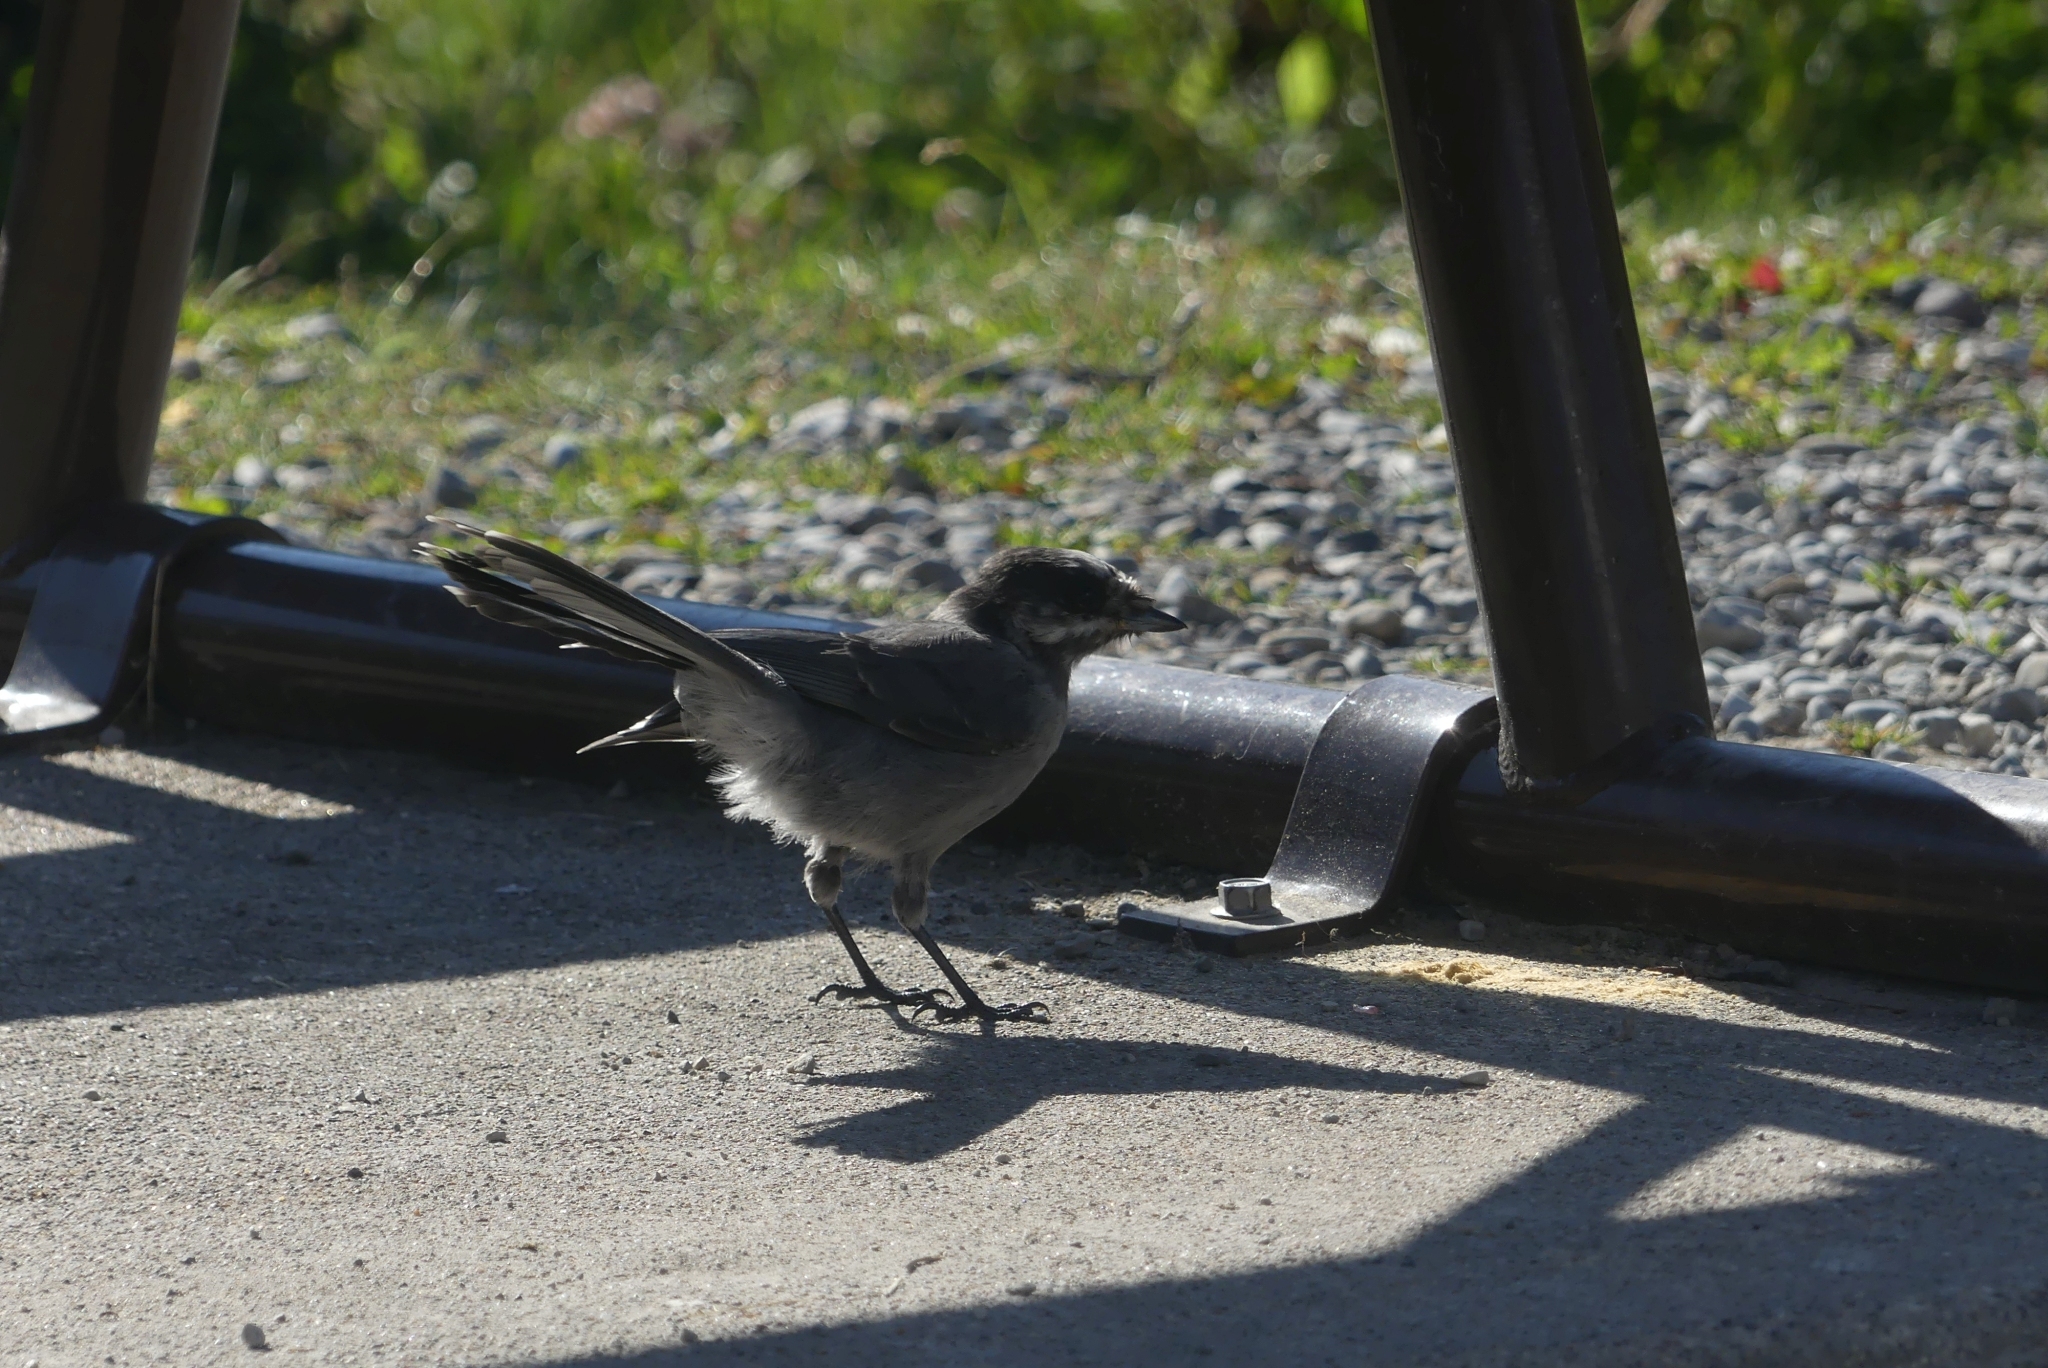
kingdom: Animalia
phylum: Chordata
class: Aves
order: Passeriformes
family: Corvidae
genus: Perisoreus
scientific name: Perisoreus canadensis
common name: Gray jay
